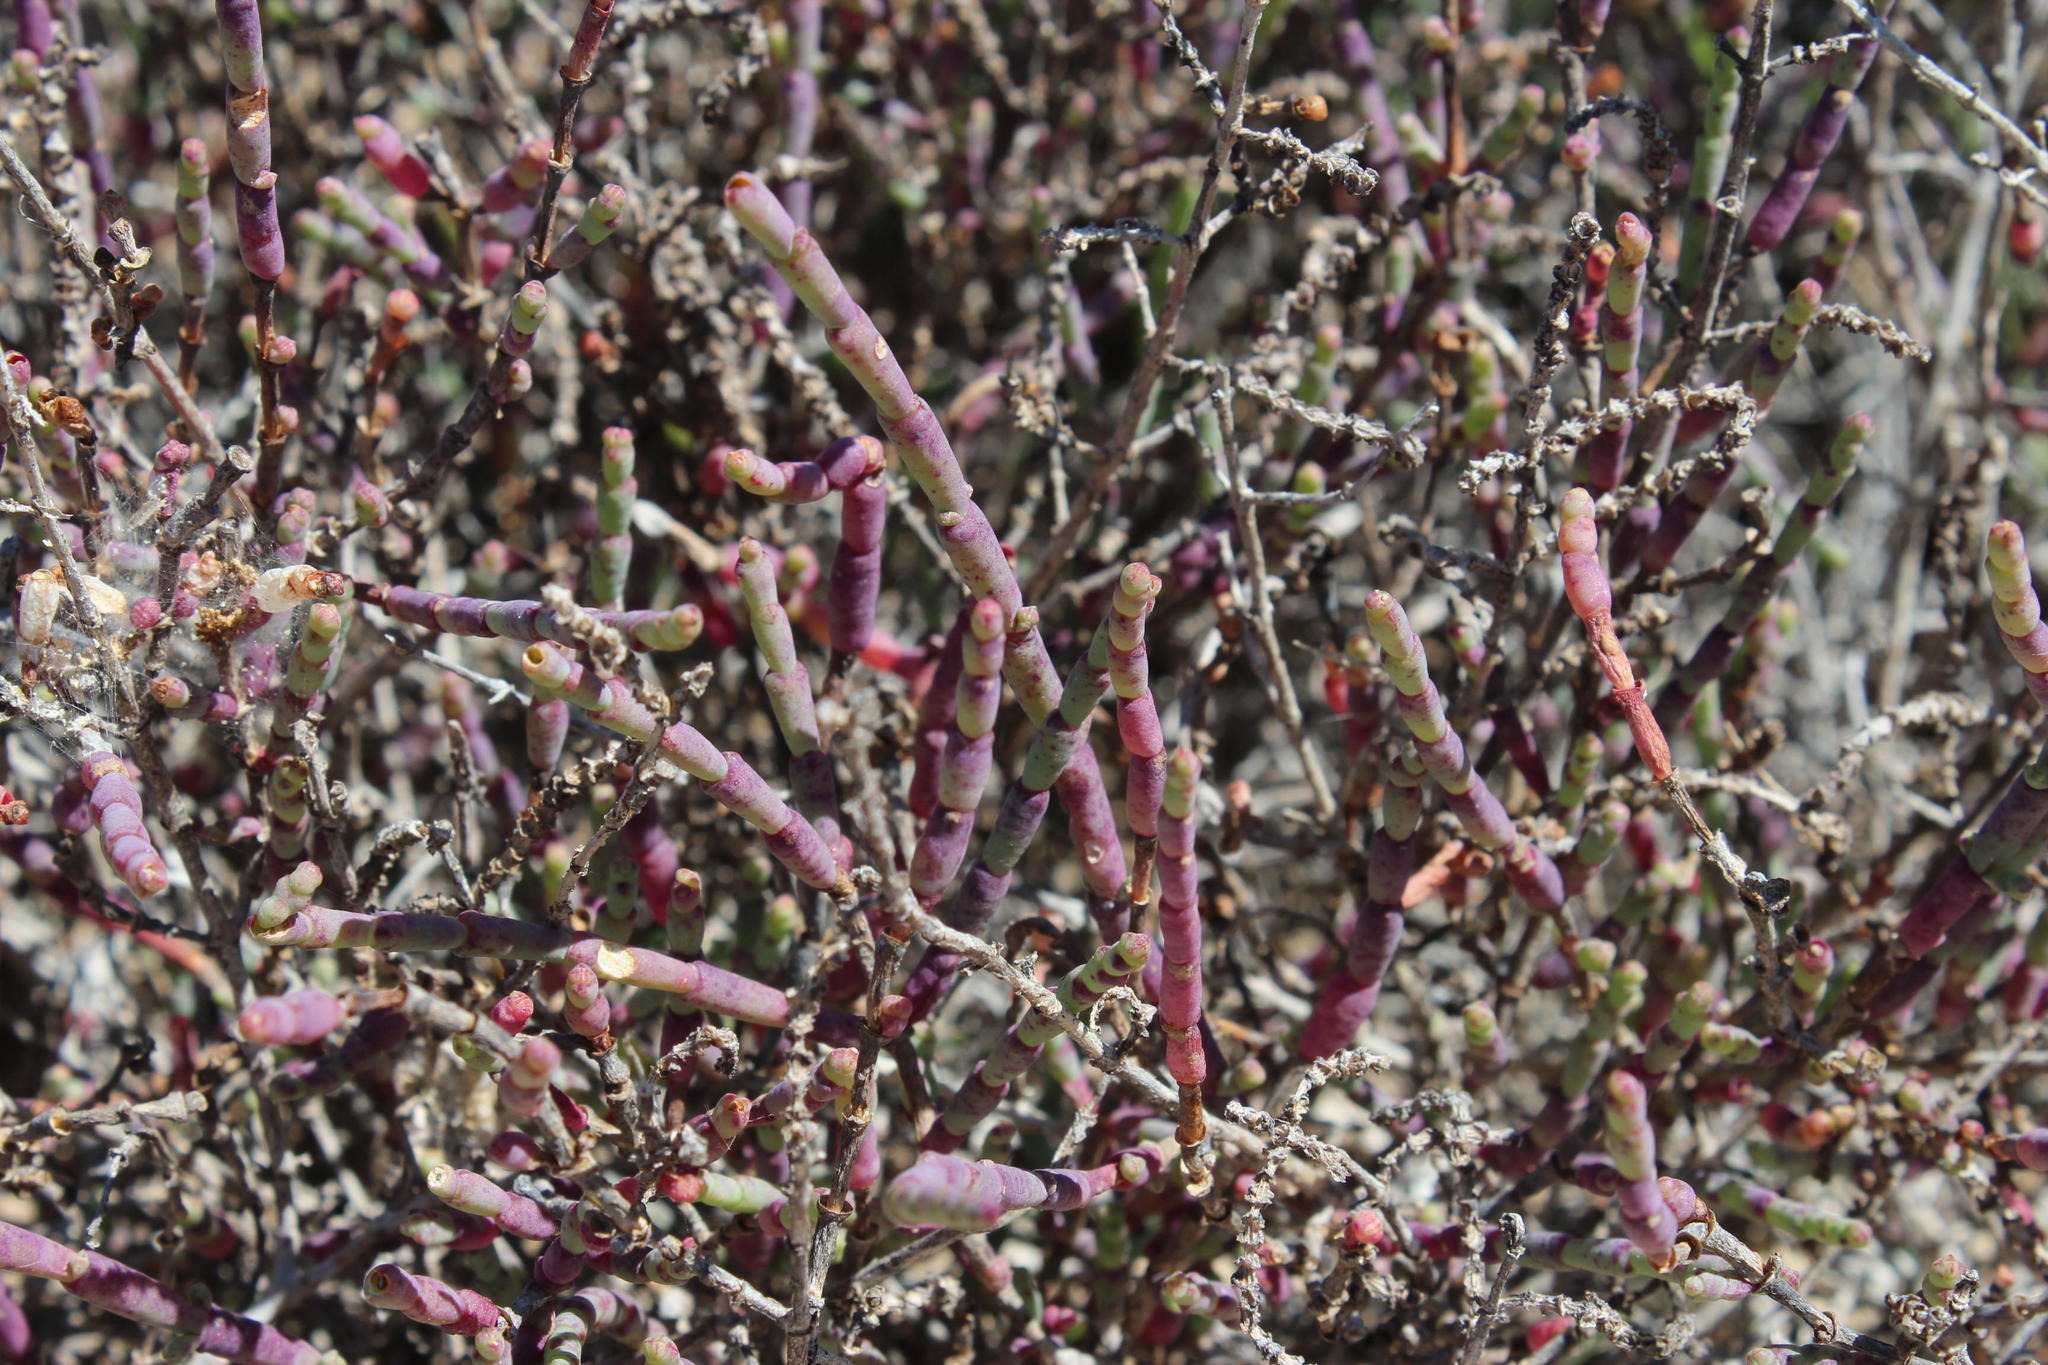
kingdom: Plantae
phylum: Tracheophyta
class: Magnoliopsida
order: Caryophyllales
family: Amaranthaceae
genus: Salicornia
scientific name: Salicornia pillansii
